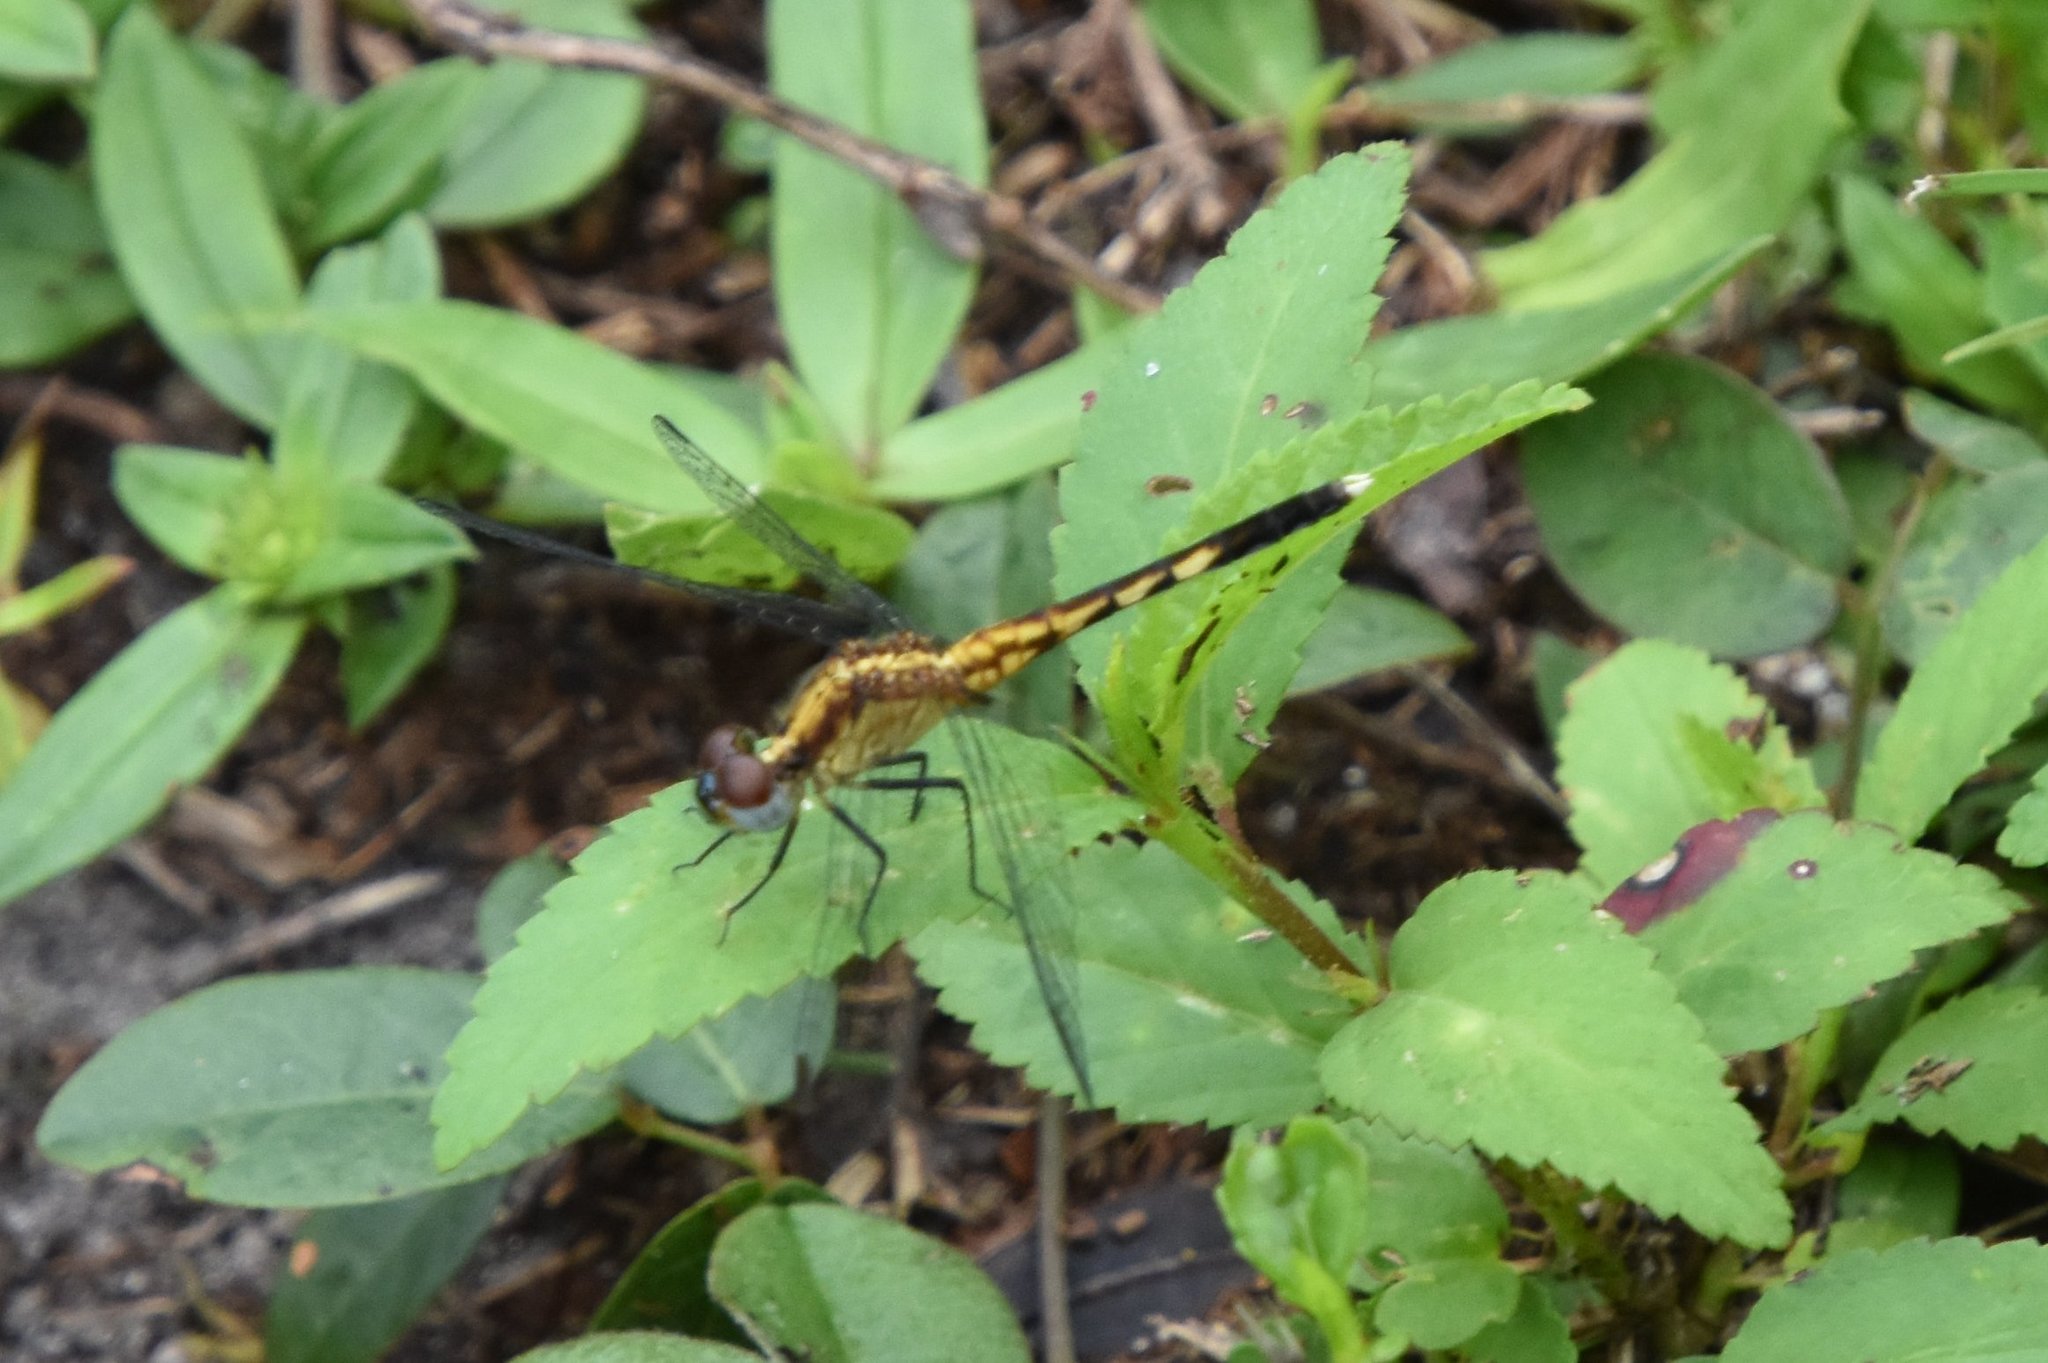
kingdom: Animalia
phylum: Arthropoda
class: Insecta
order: Odonata
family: Libellulidae
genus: Erythrodiplax
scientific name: Erythrodiplax minuscula
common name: Little blue dragonlet
